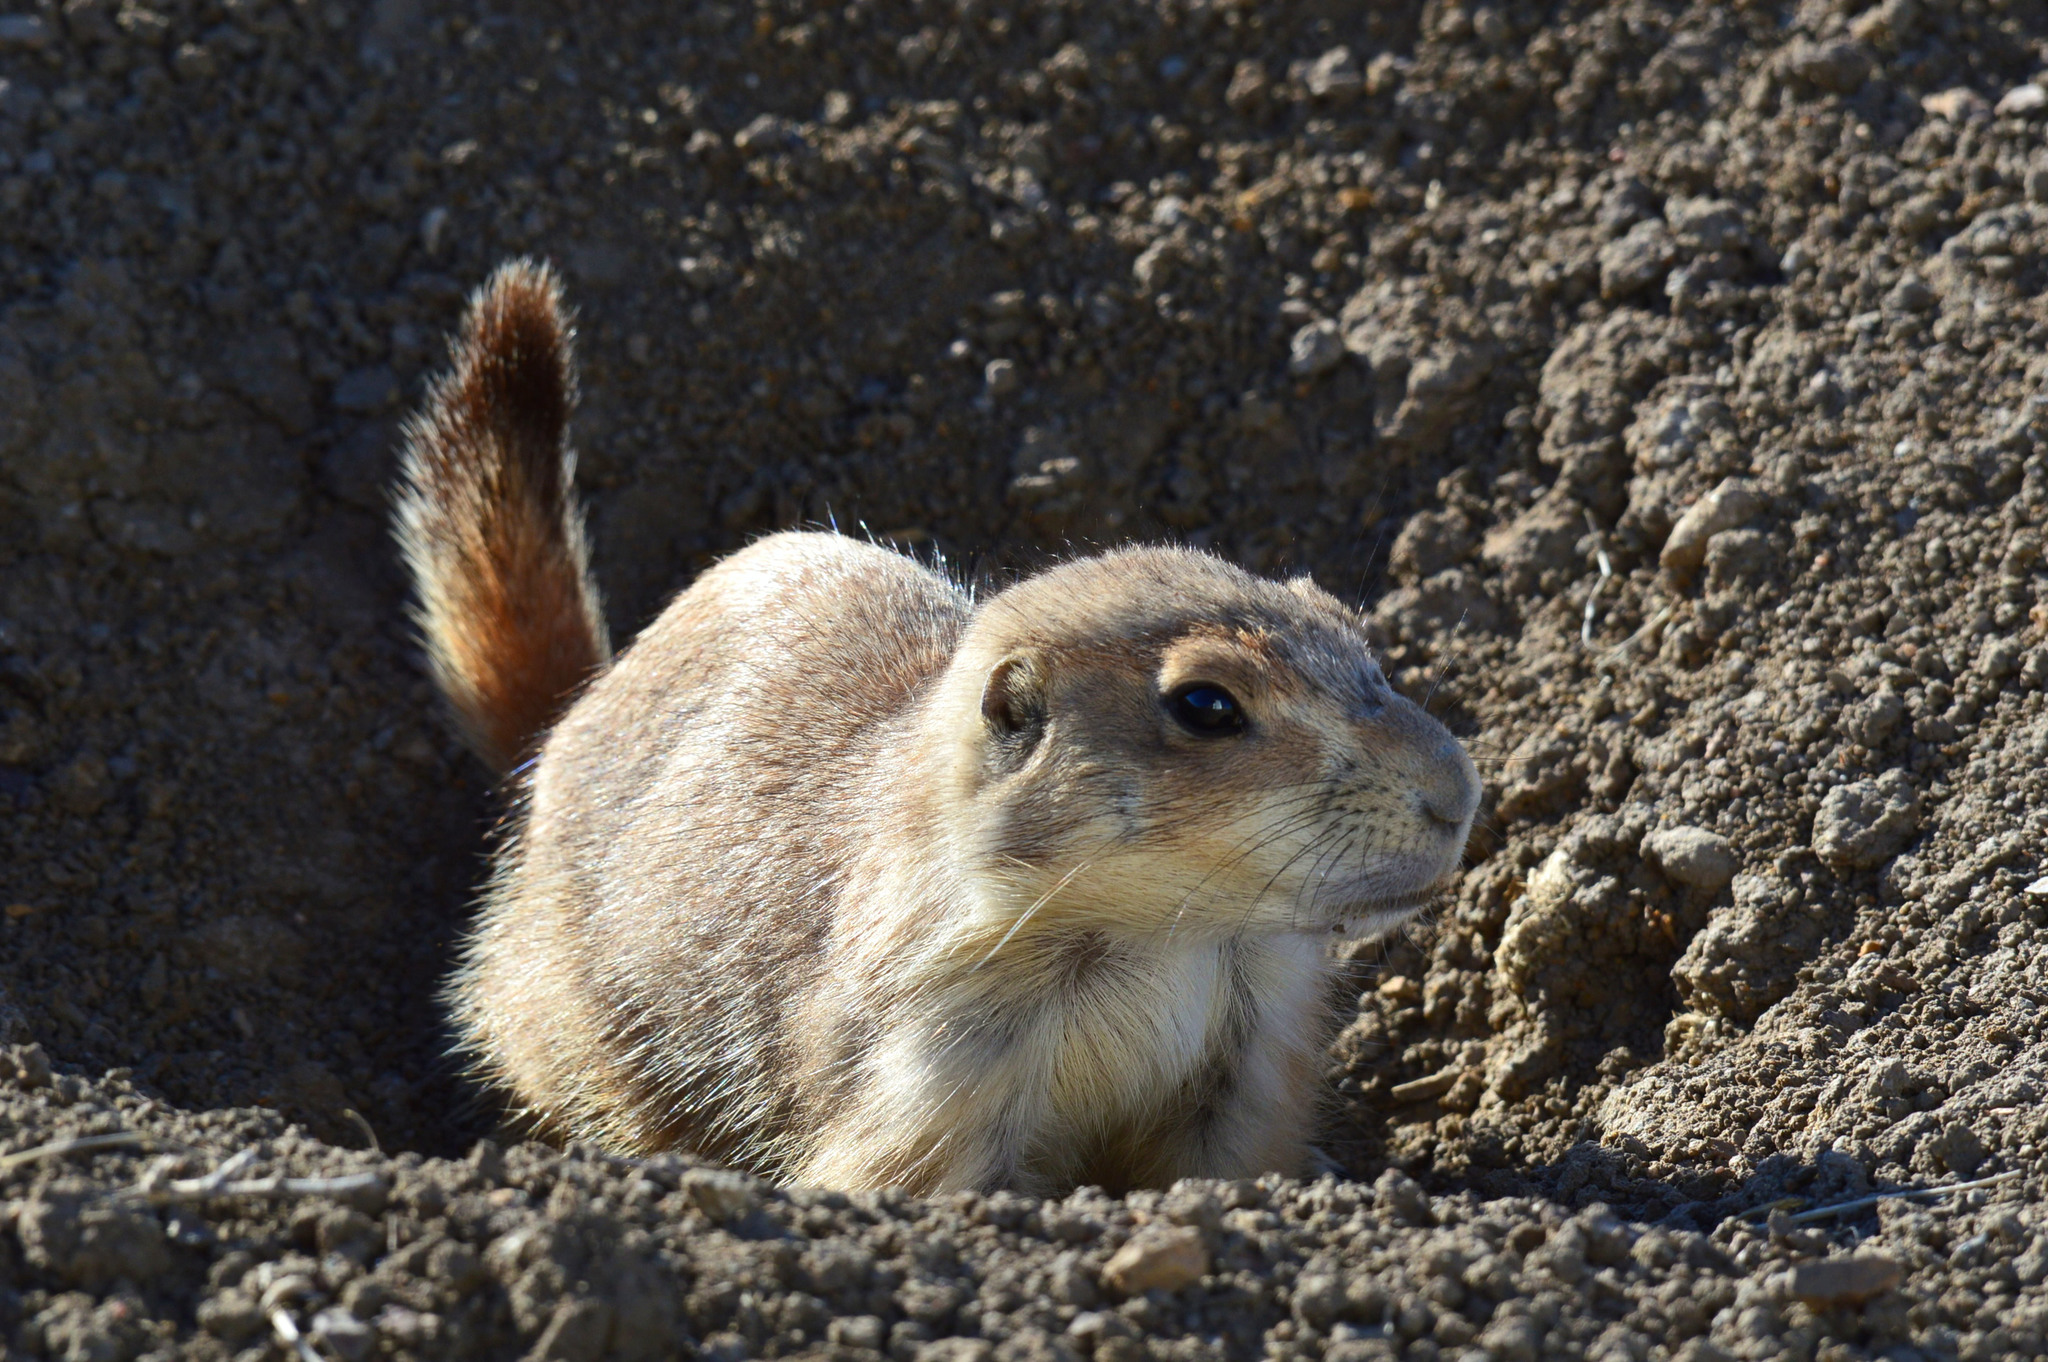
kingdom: Animalia
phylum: Chordata
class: Mammalia
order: Rodentia
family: Sciuridae
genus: Cynomys
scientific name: Cynomys ludovicianus
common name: Black-tailed prairie dog
